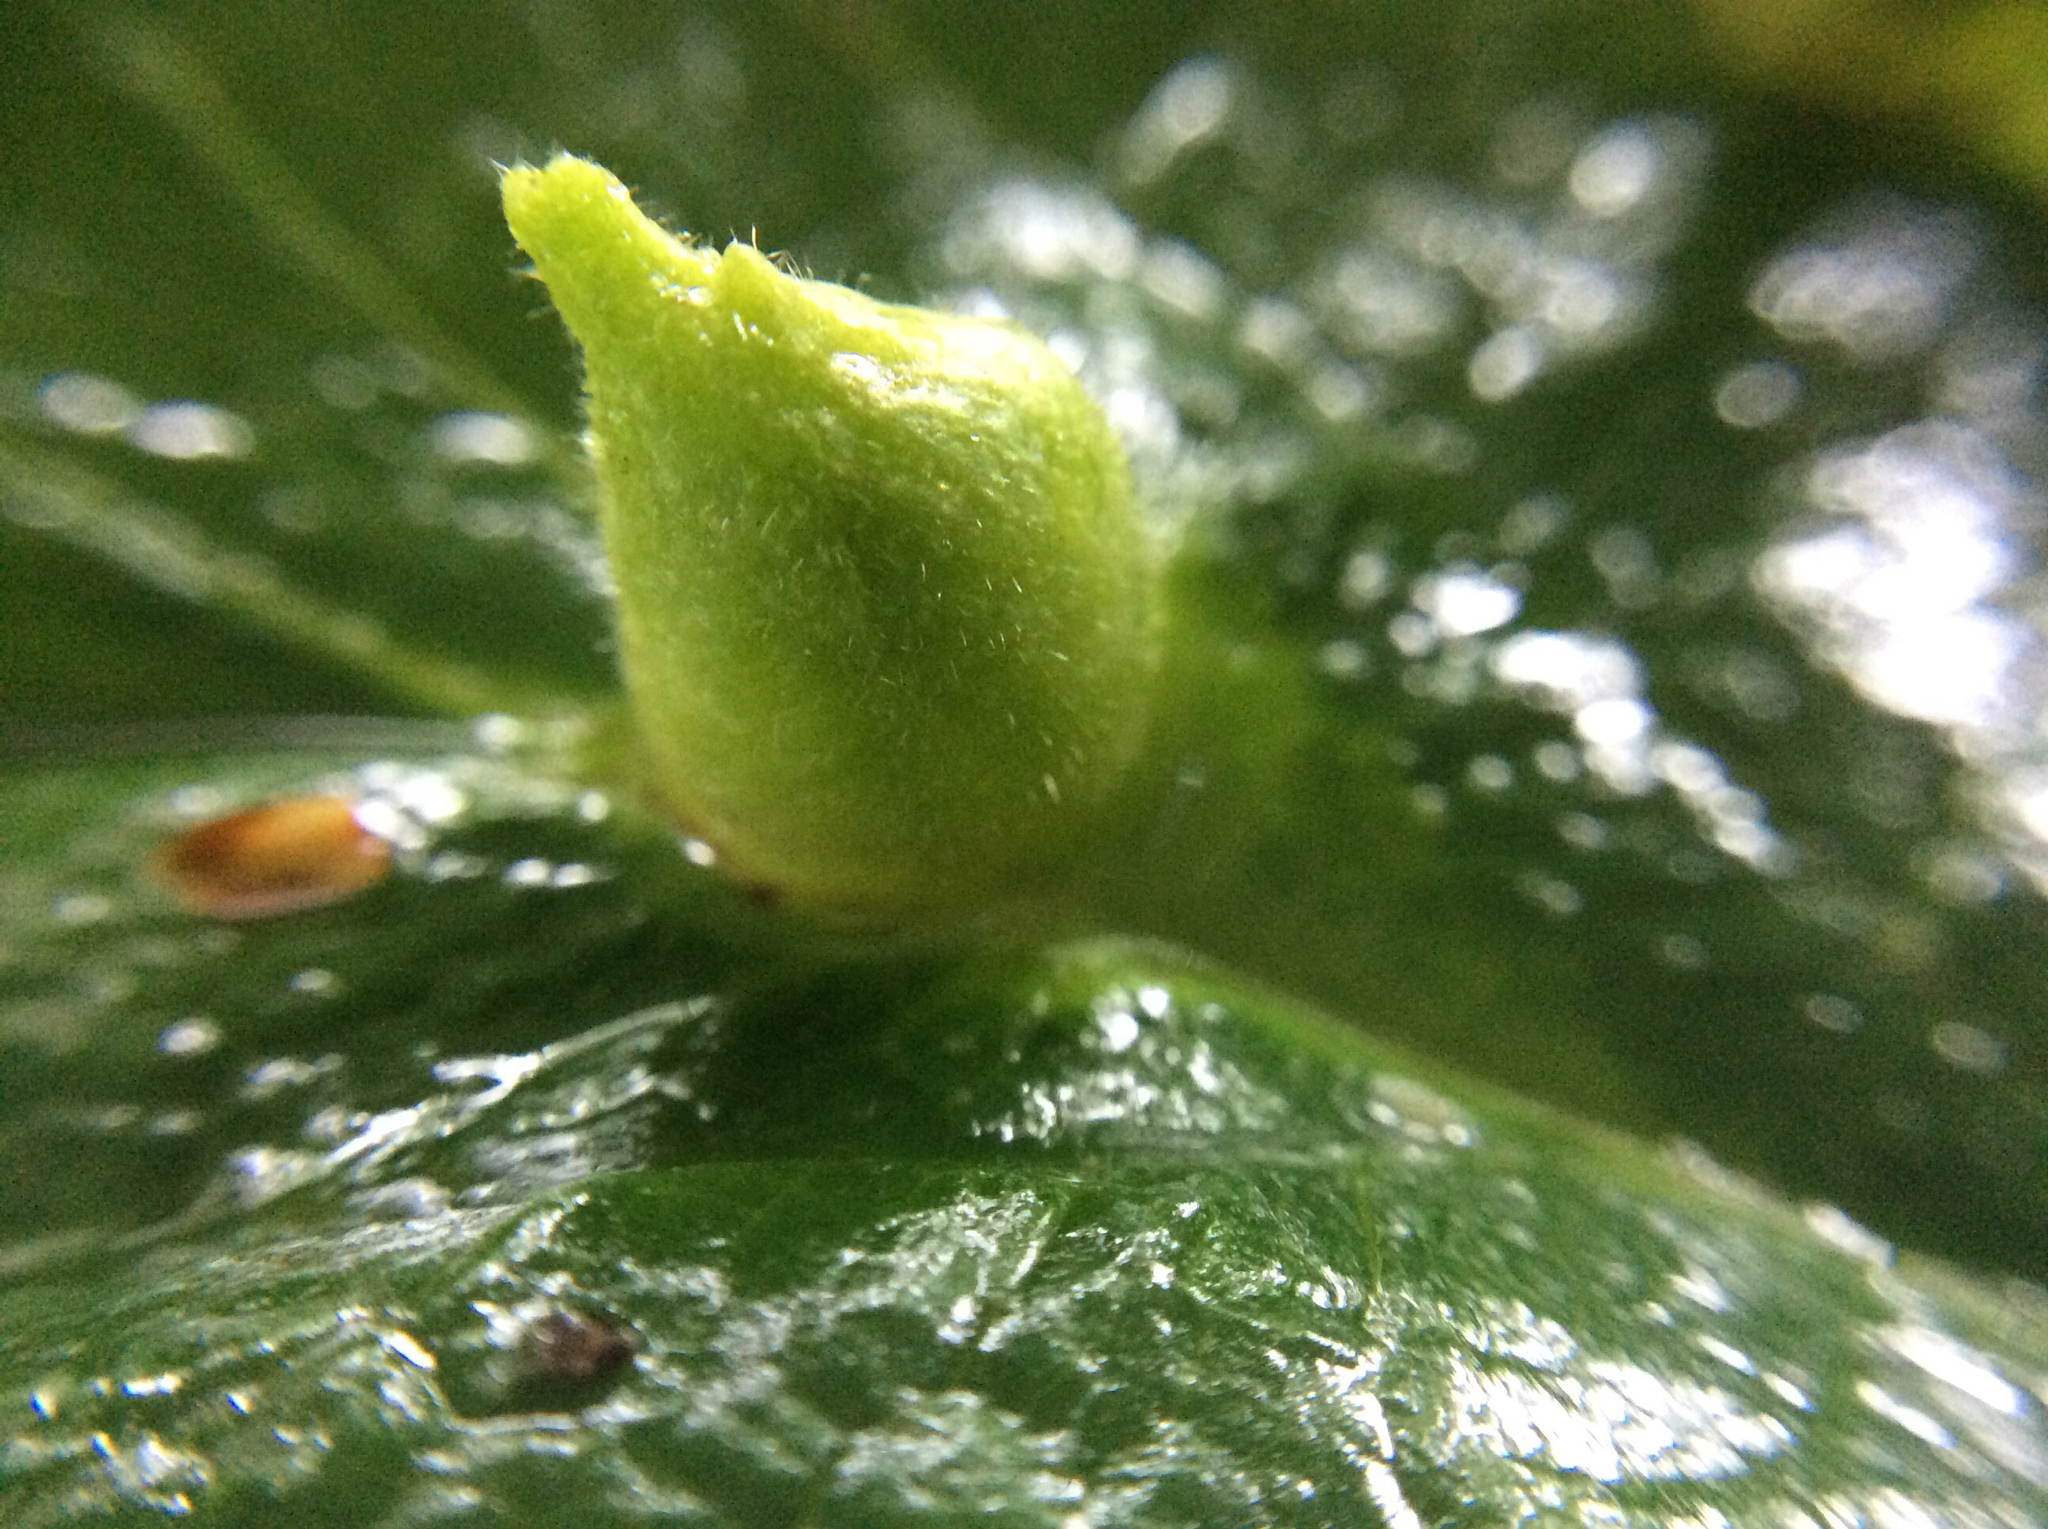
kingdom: Animalia
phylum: Arthropoda
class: Insecta
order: Hemiptera
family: Aphididae
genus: Hormaphis
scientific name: Hormaphis hamamelidis
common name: Witch-hazel cone gall aphid
